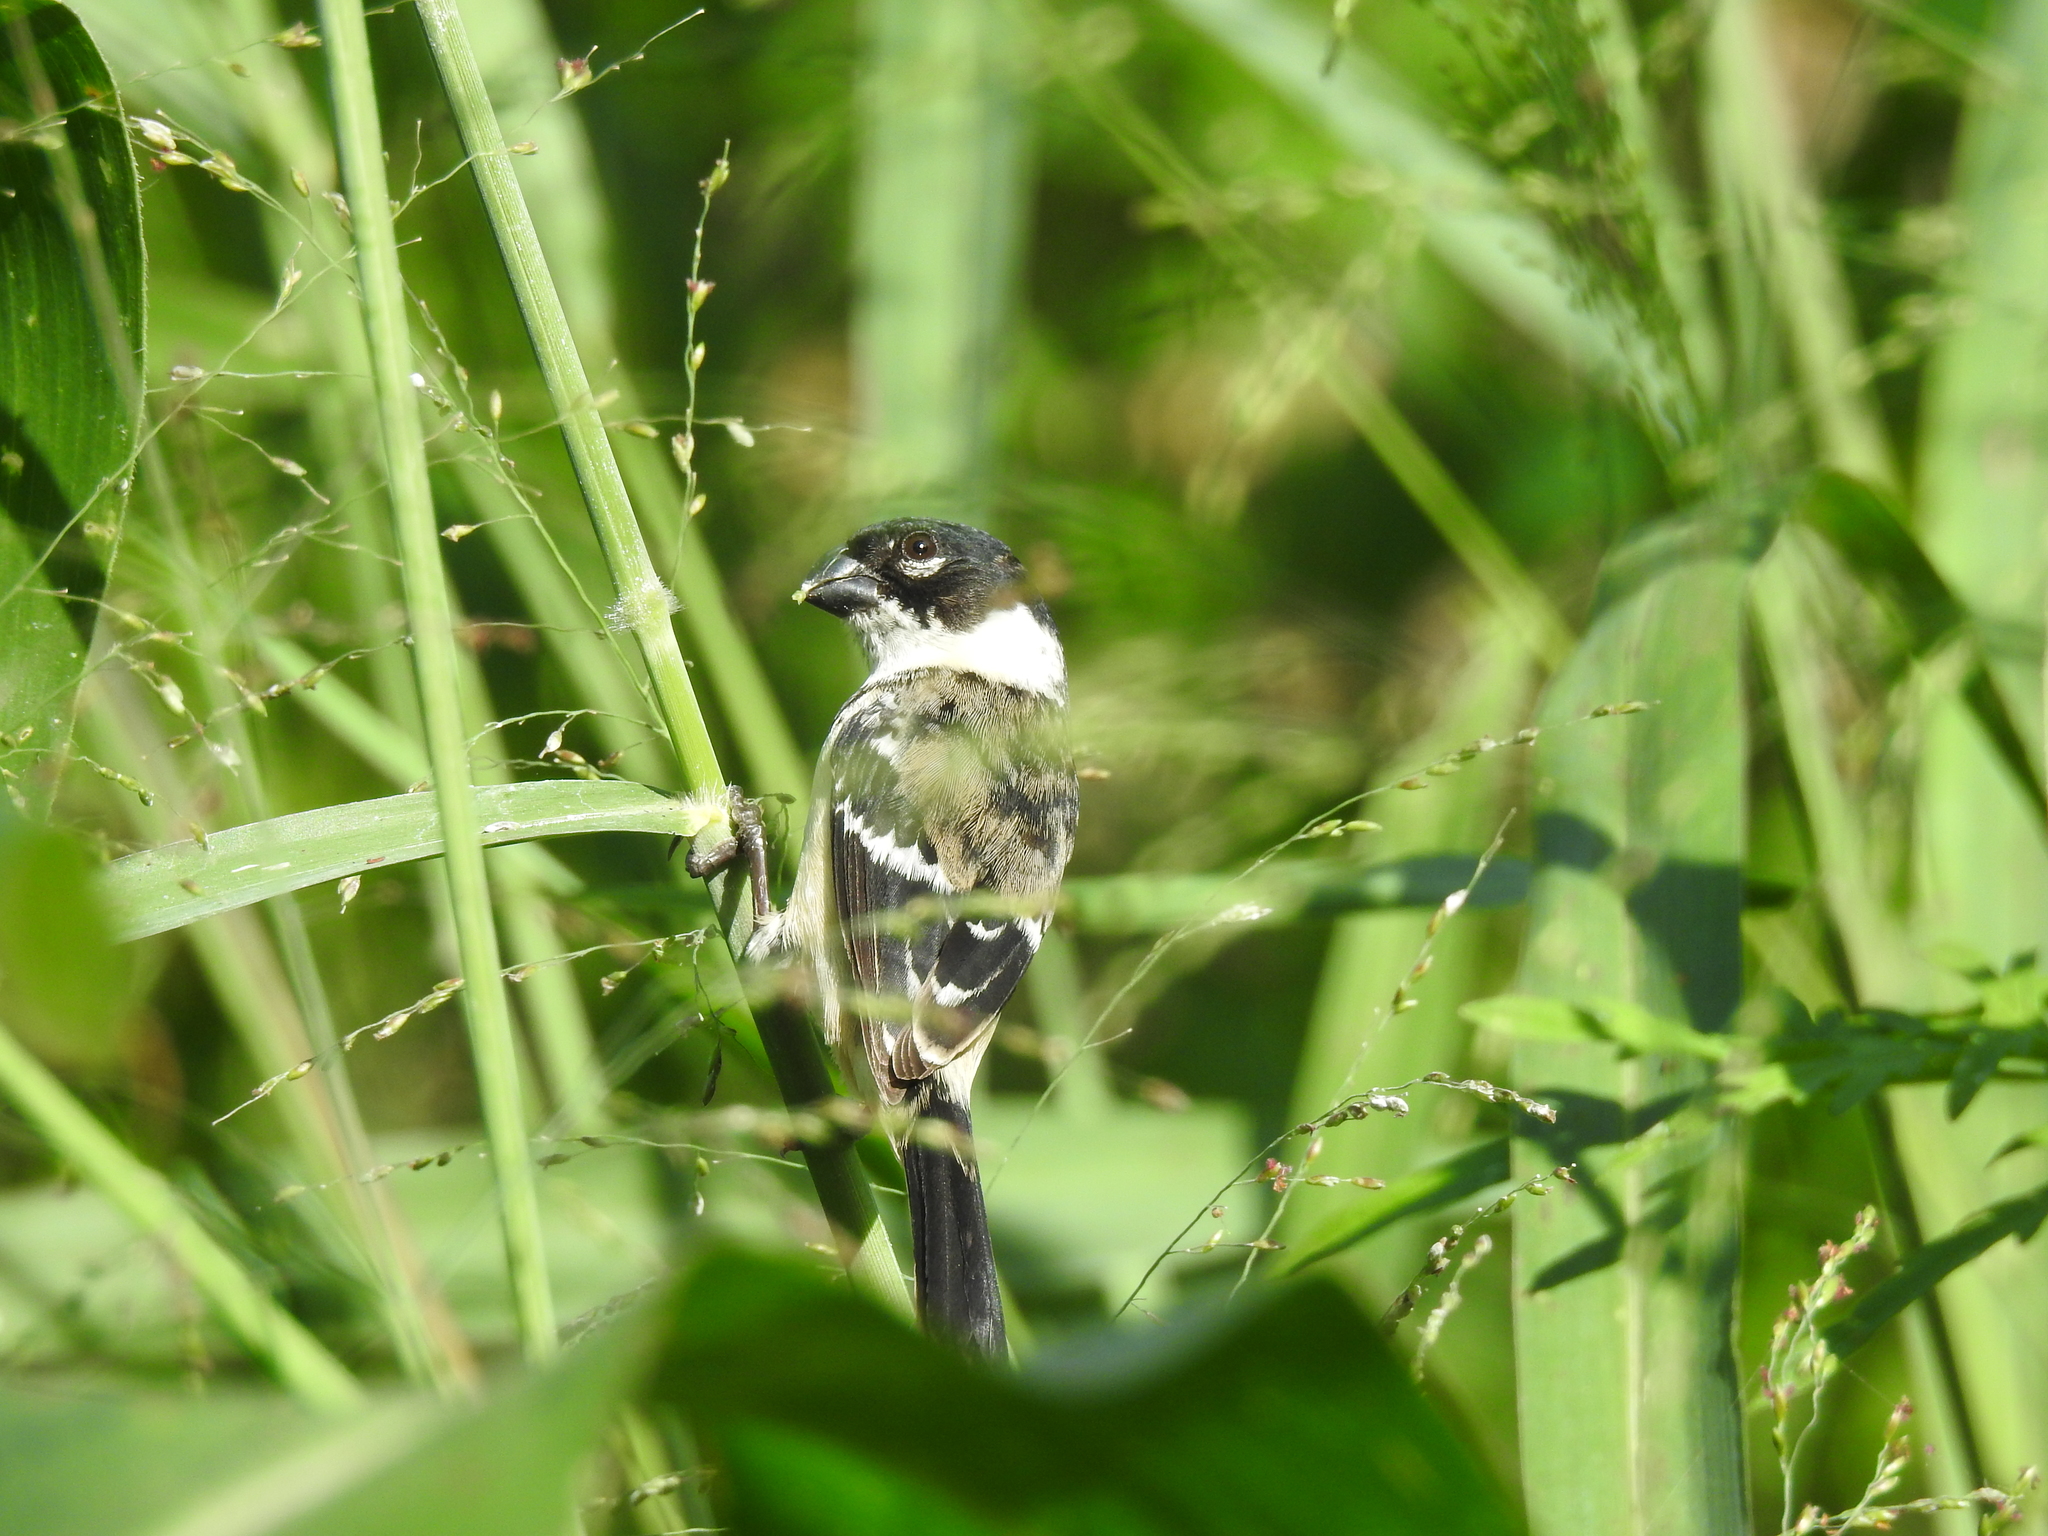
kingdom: Animalia
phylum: Chordata
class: Aves
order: Passeriformes
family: Thraupidae
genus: Sporophila
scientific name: Sporophila morelleti
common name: Morelet's seedeater
